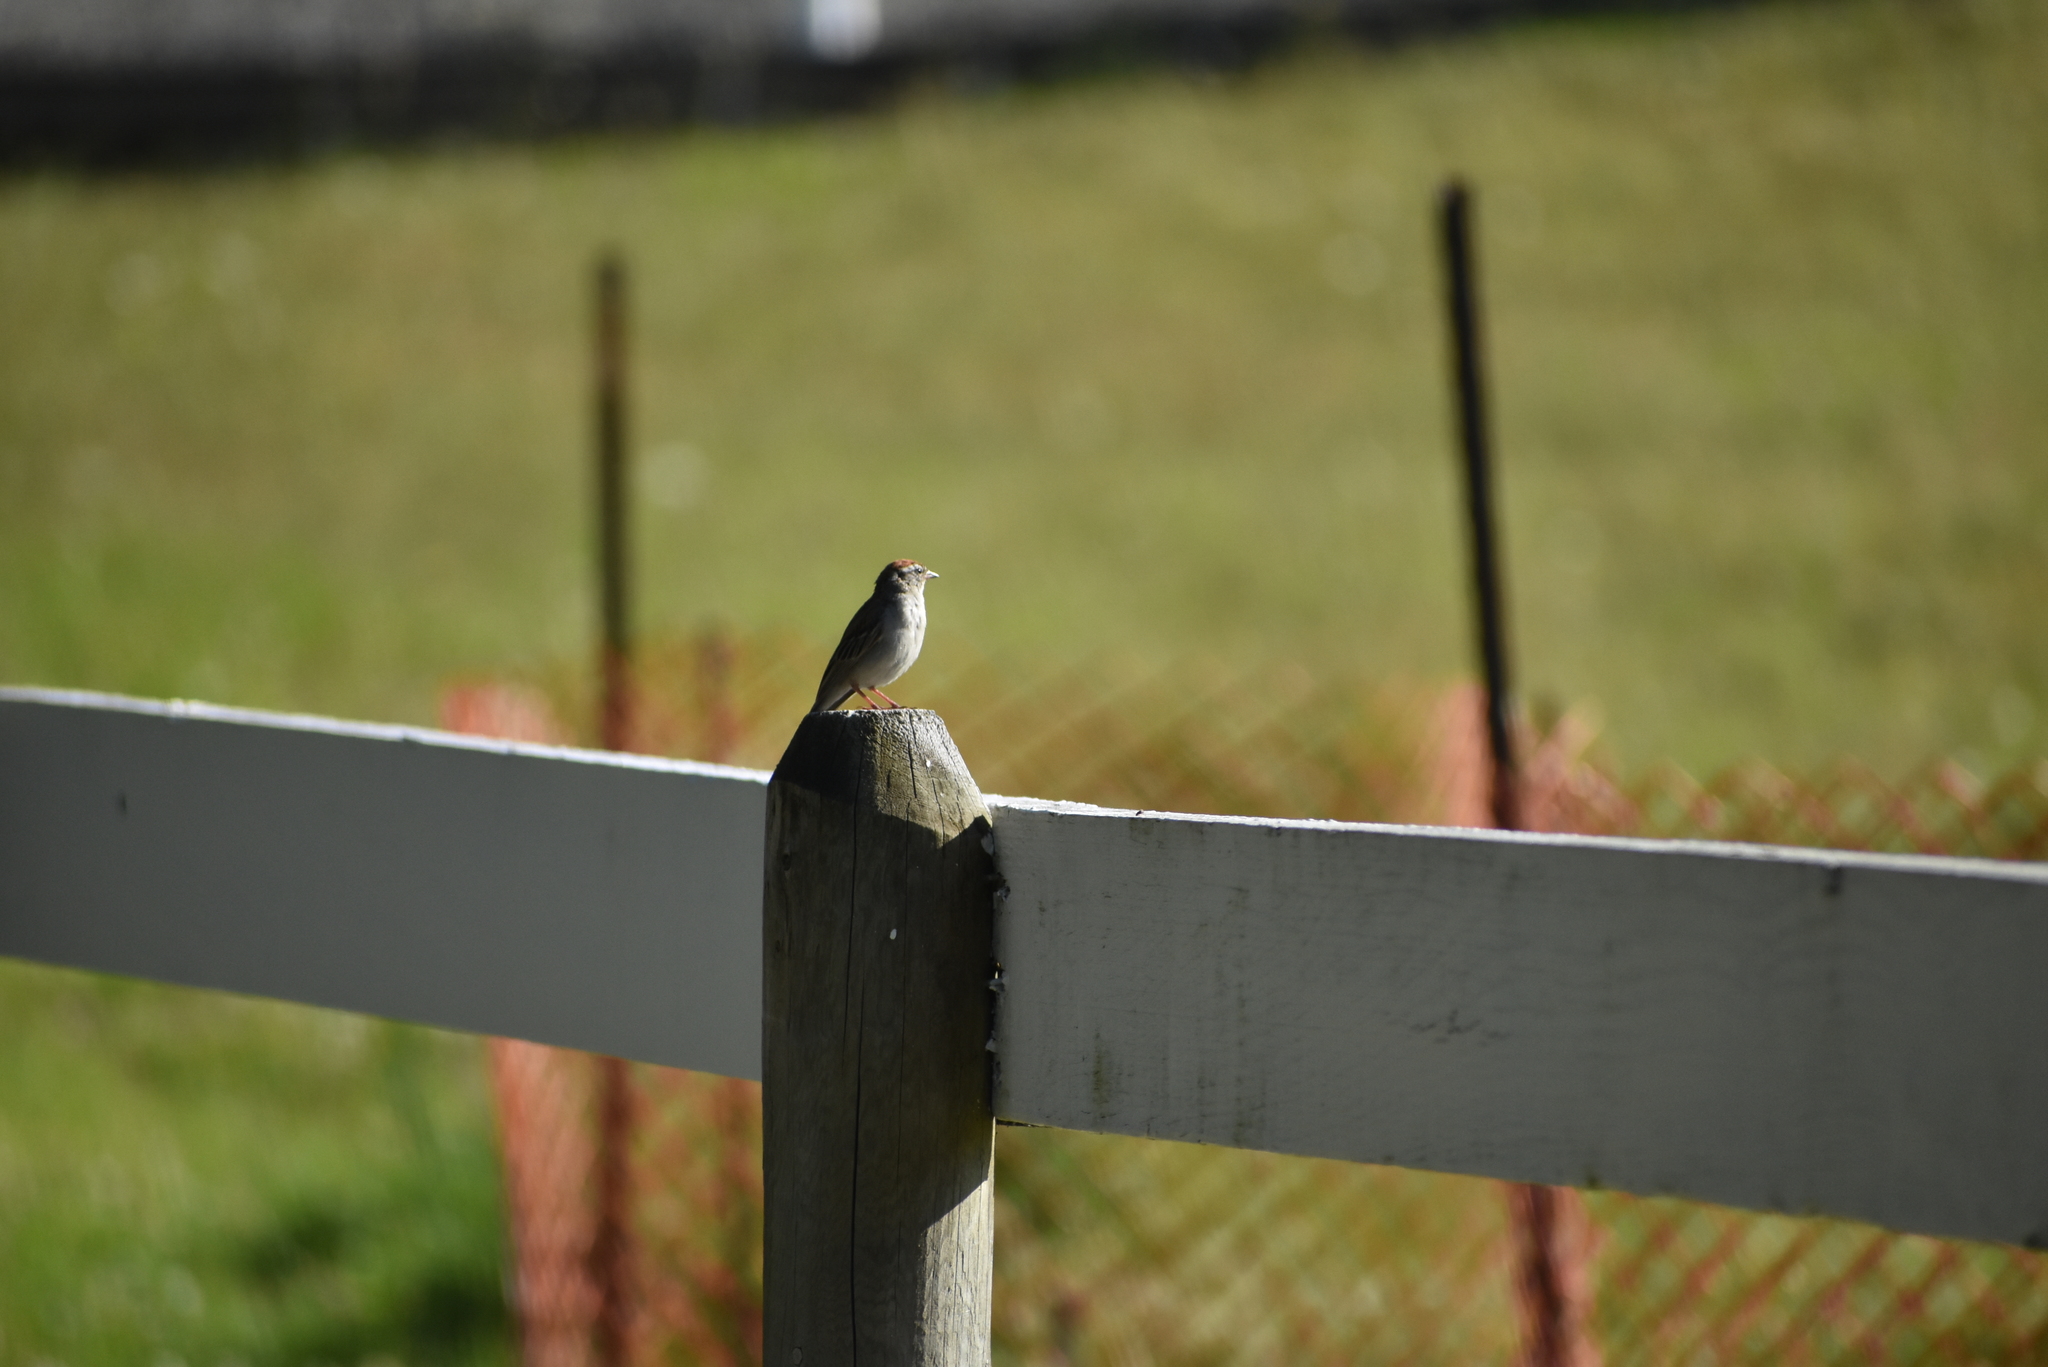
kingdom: Animalia
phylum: Chordata
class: Aves
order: Passeriformes
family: Passerellidae
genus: Spizella
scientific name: Spizella passerina
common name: Chipping sparrow
